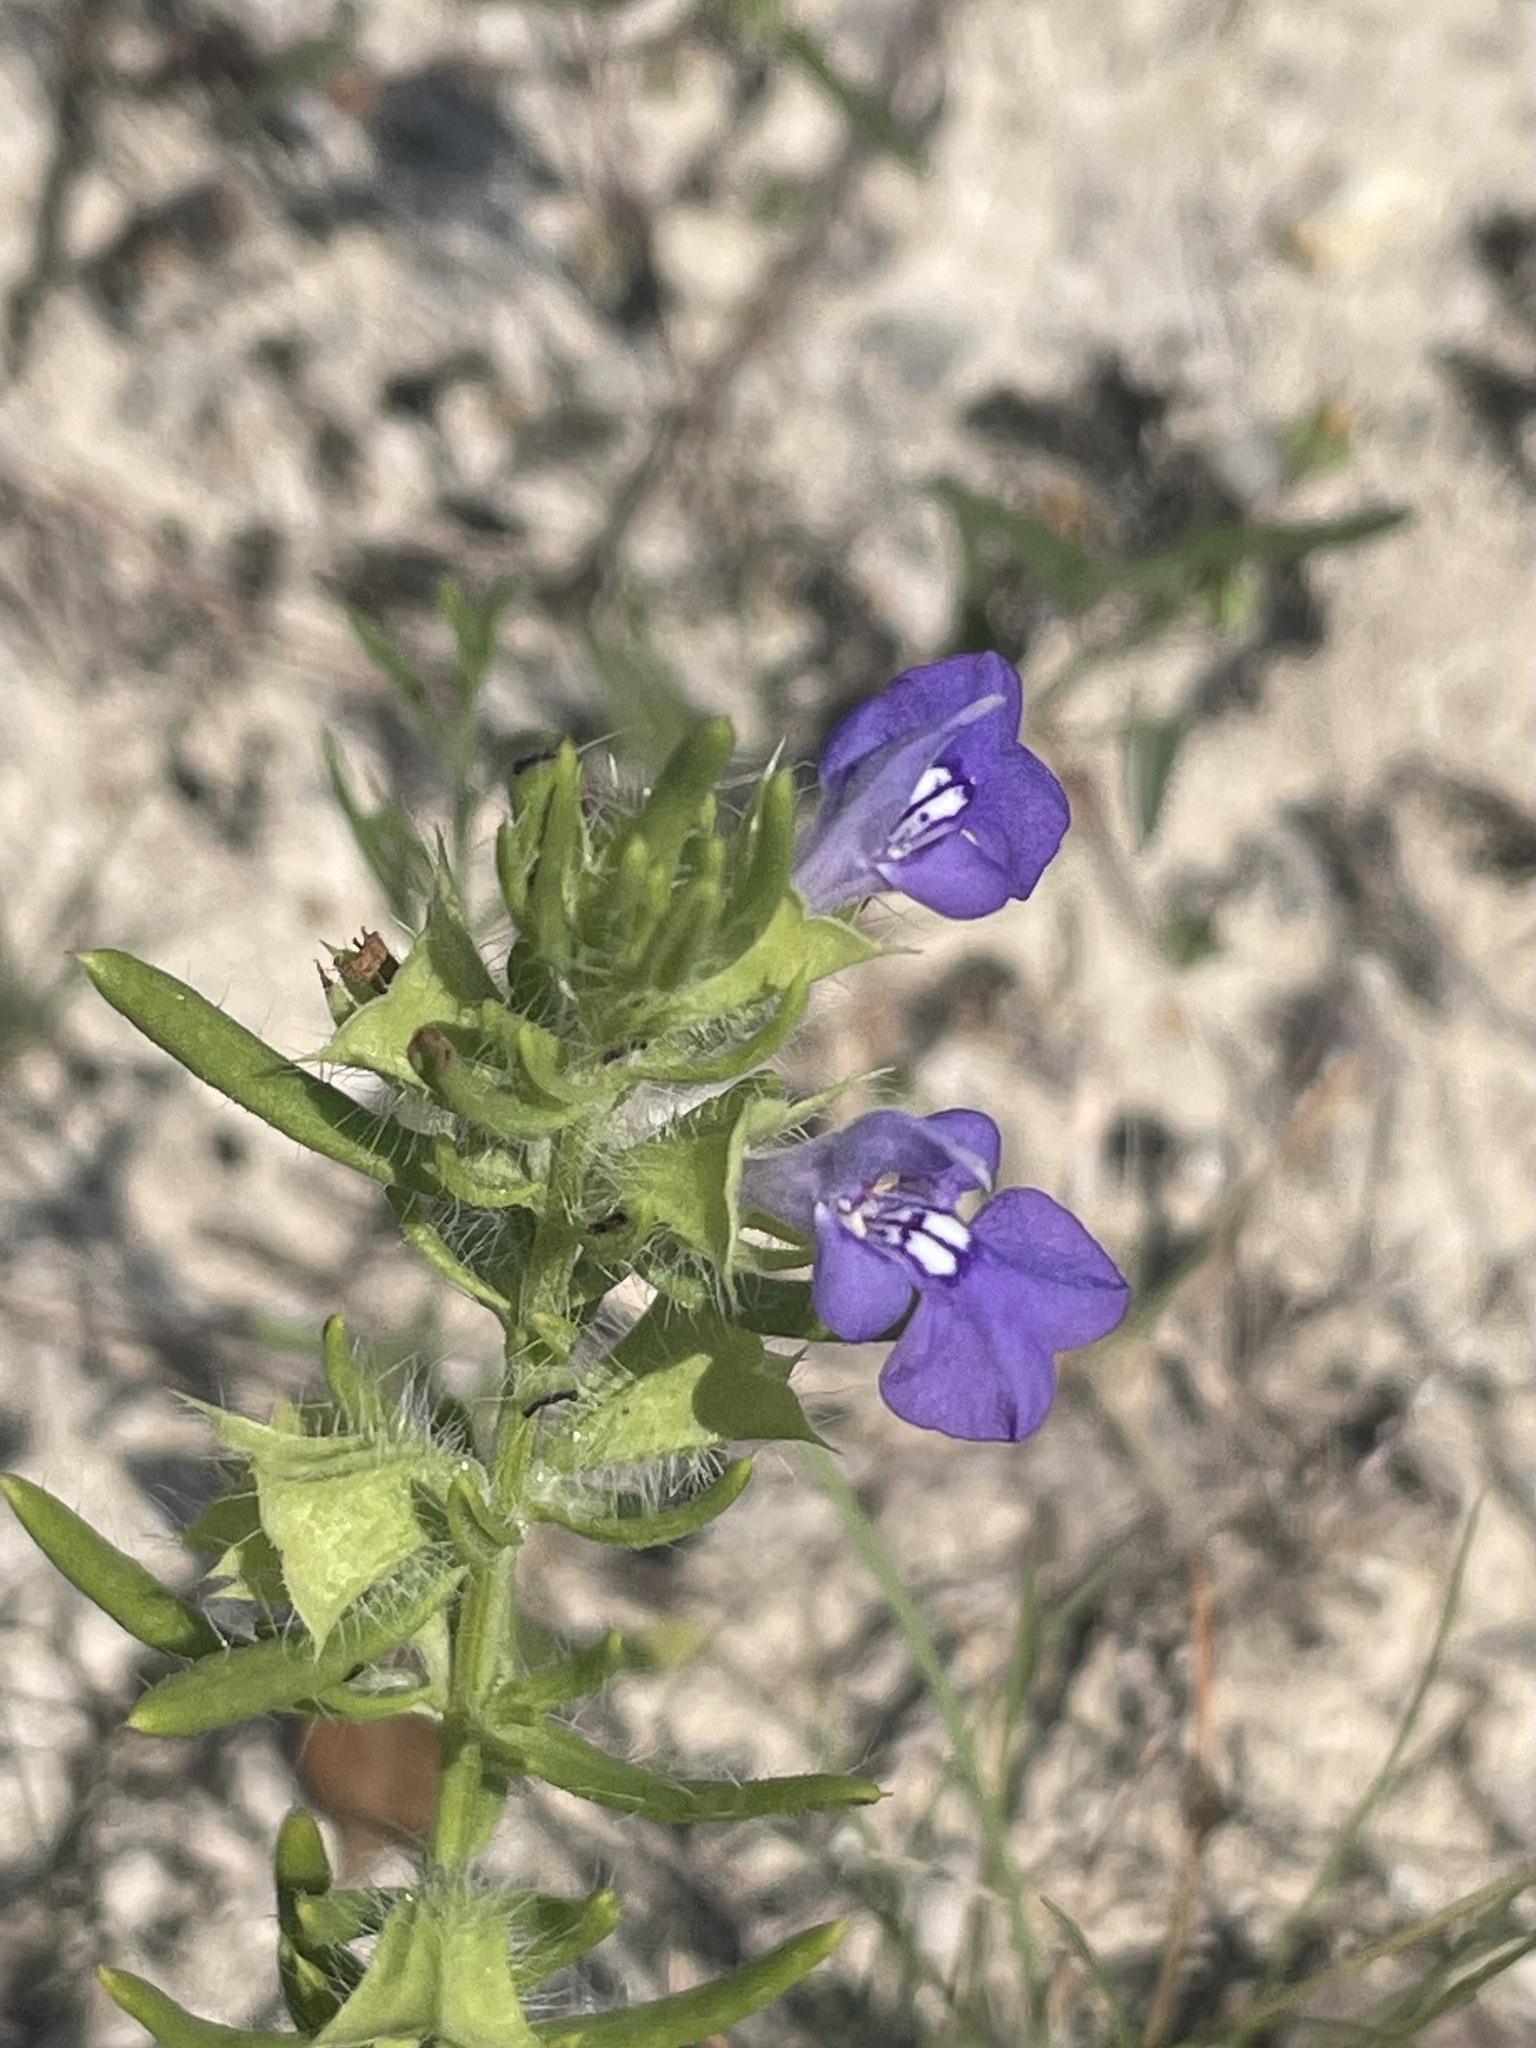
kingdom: Plantae
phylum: Tracheophyta
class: Magnoliopsida
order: Lamiales
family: Lamiaceae
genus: Salvia
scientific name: Salvia texana
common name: Texas sage
